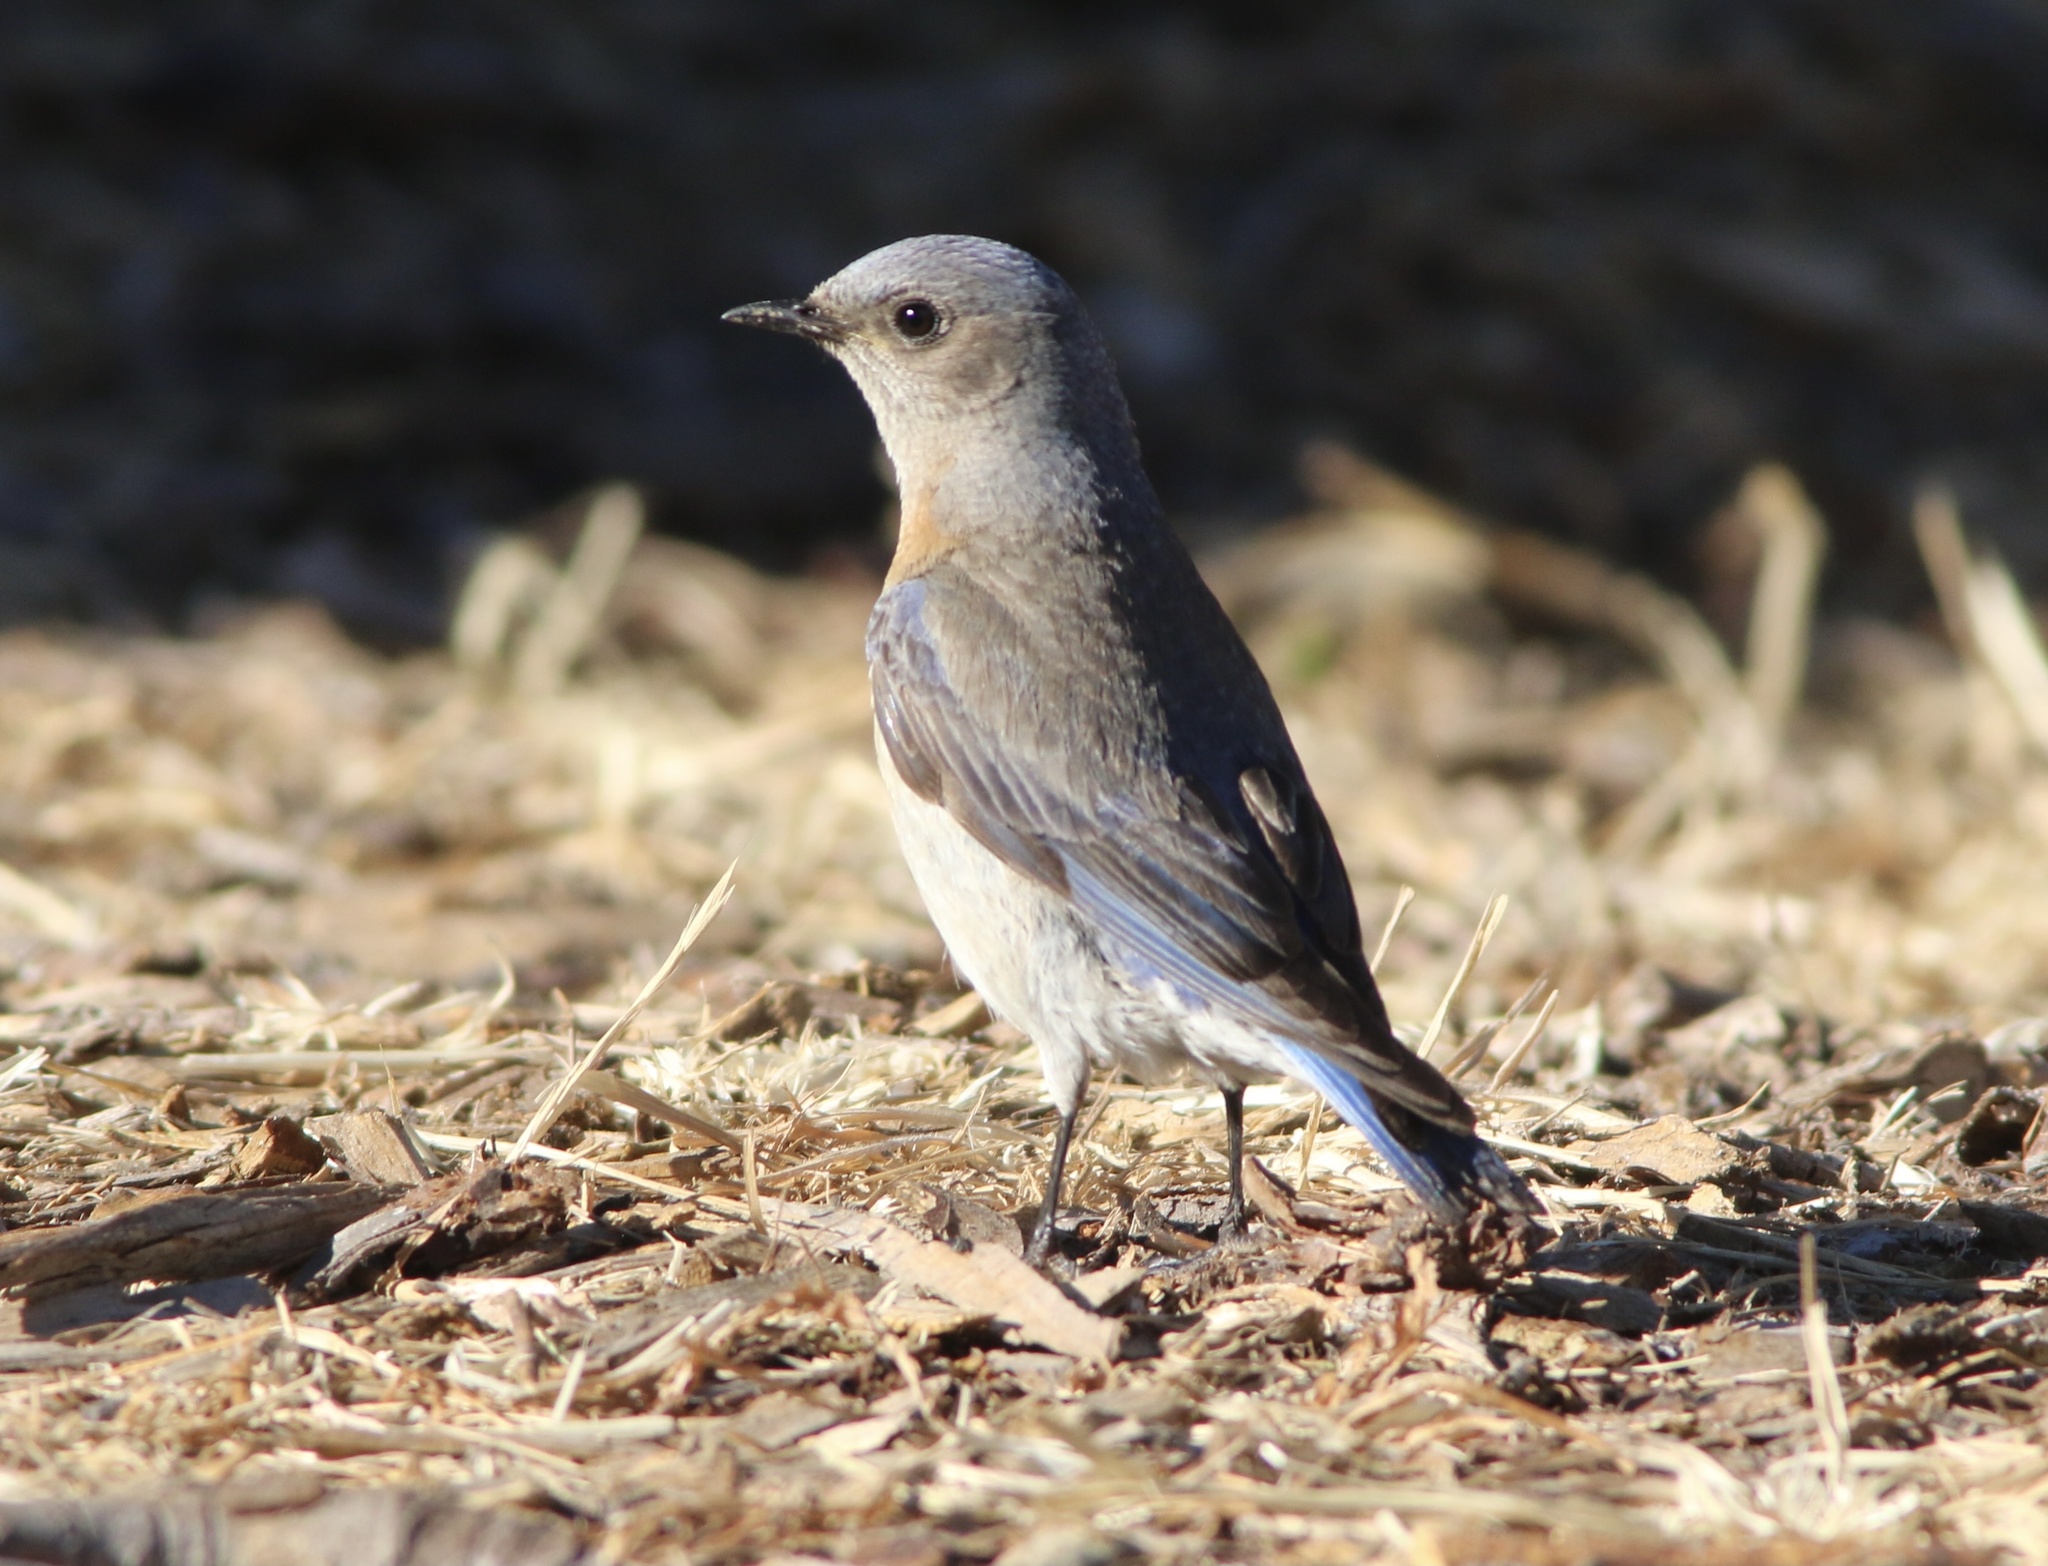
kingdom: Animalia
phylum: Chordata
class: Aves
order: Passeriformes
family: Turdidae
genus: Sialia
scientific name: Sialia mexicana
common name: Western bluebird
